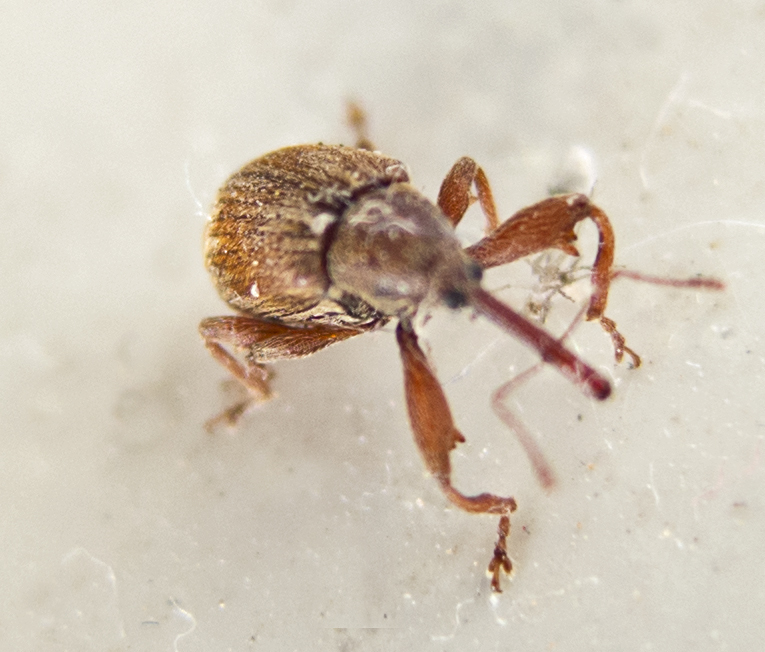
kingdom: Animalia
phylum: Arthropoda
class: Insecta
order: Coleoptera
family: Curculionidae
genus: Anthonomus
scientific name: Anthonomus rectirostris
